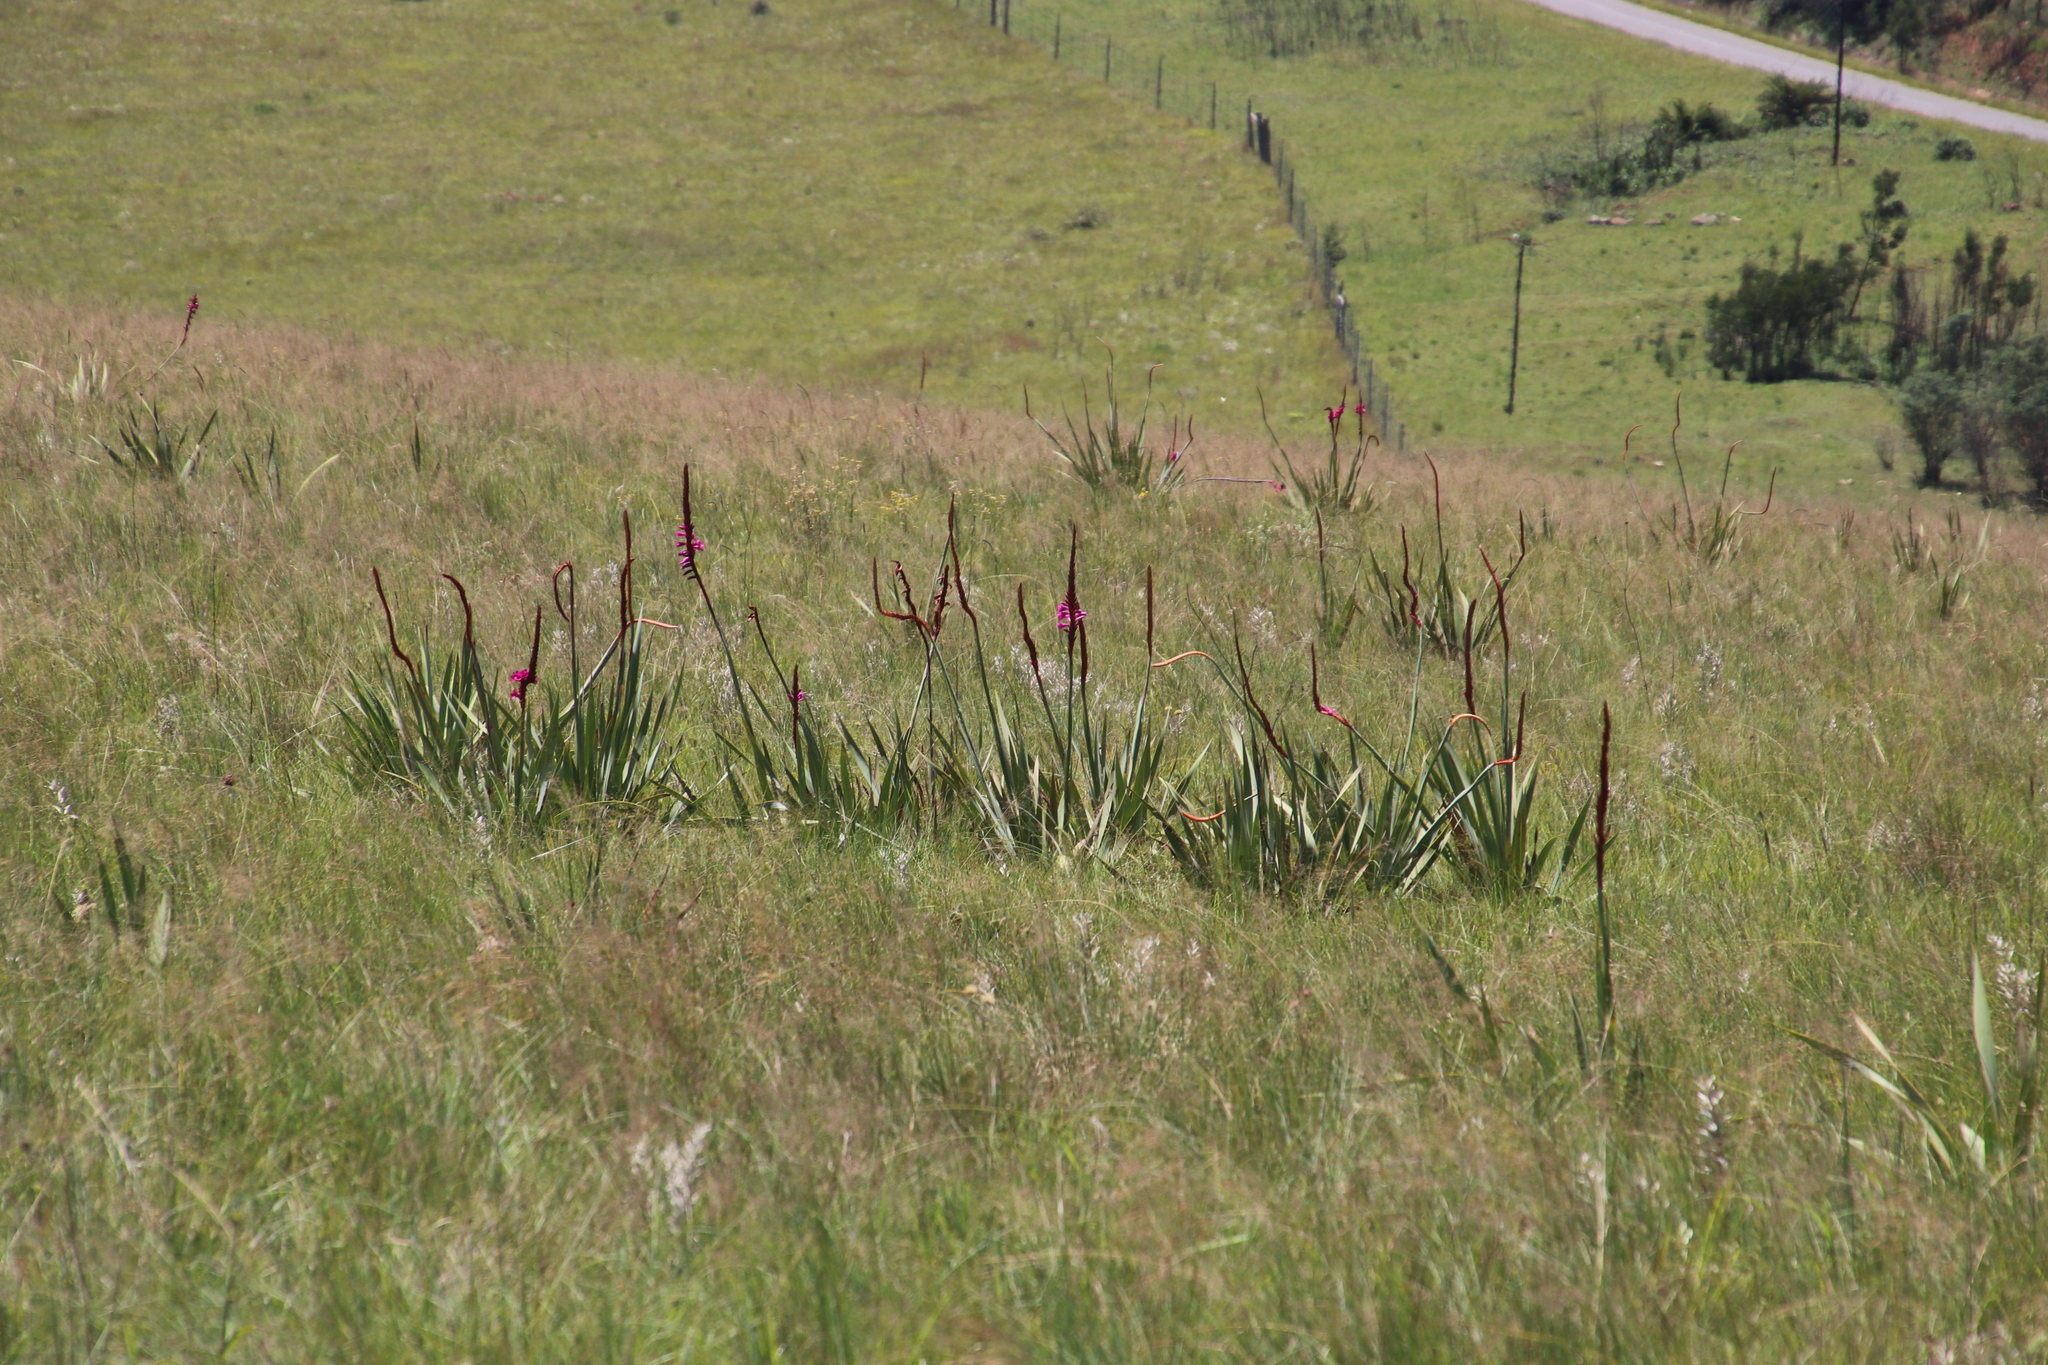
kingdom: Plantae
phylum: Tracheophyta
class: Liliopsida
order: Asparagales
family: Iridaceae
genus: Watsonia
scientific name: Watsonia pulchra
